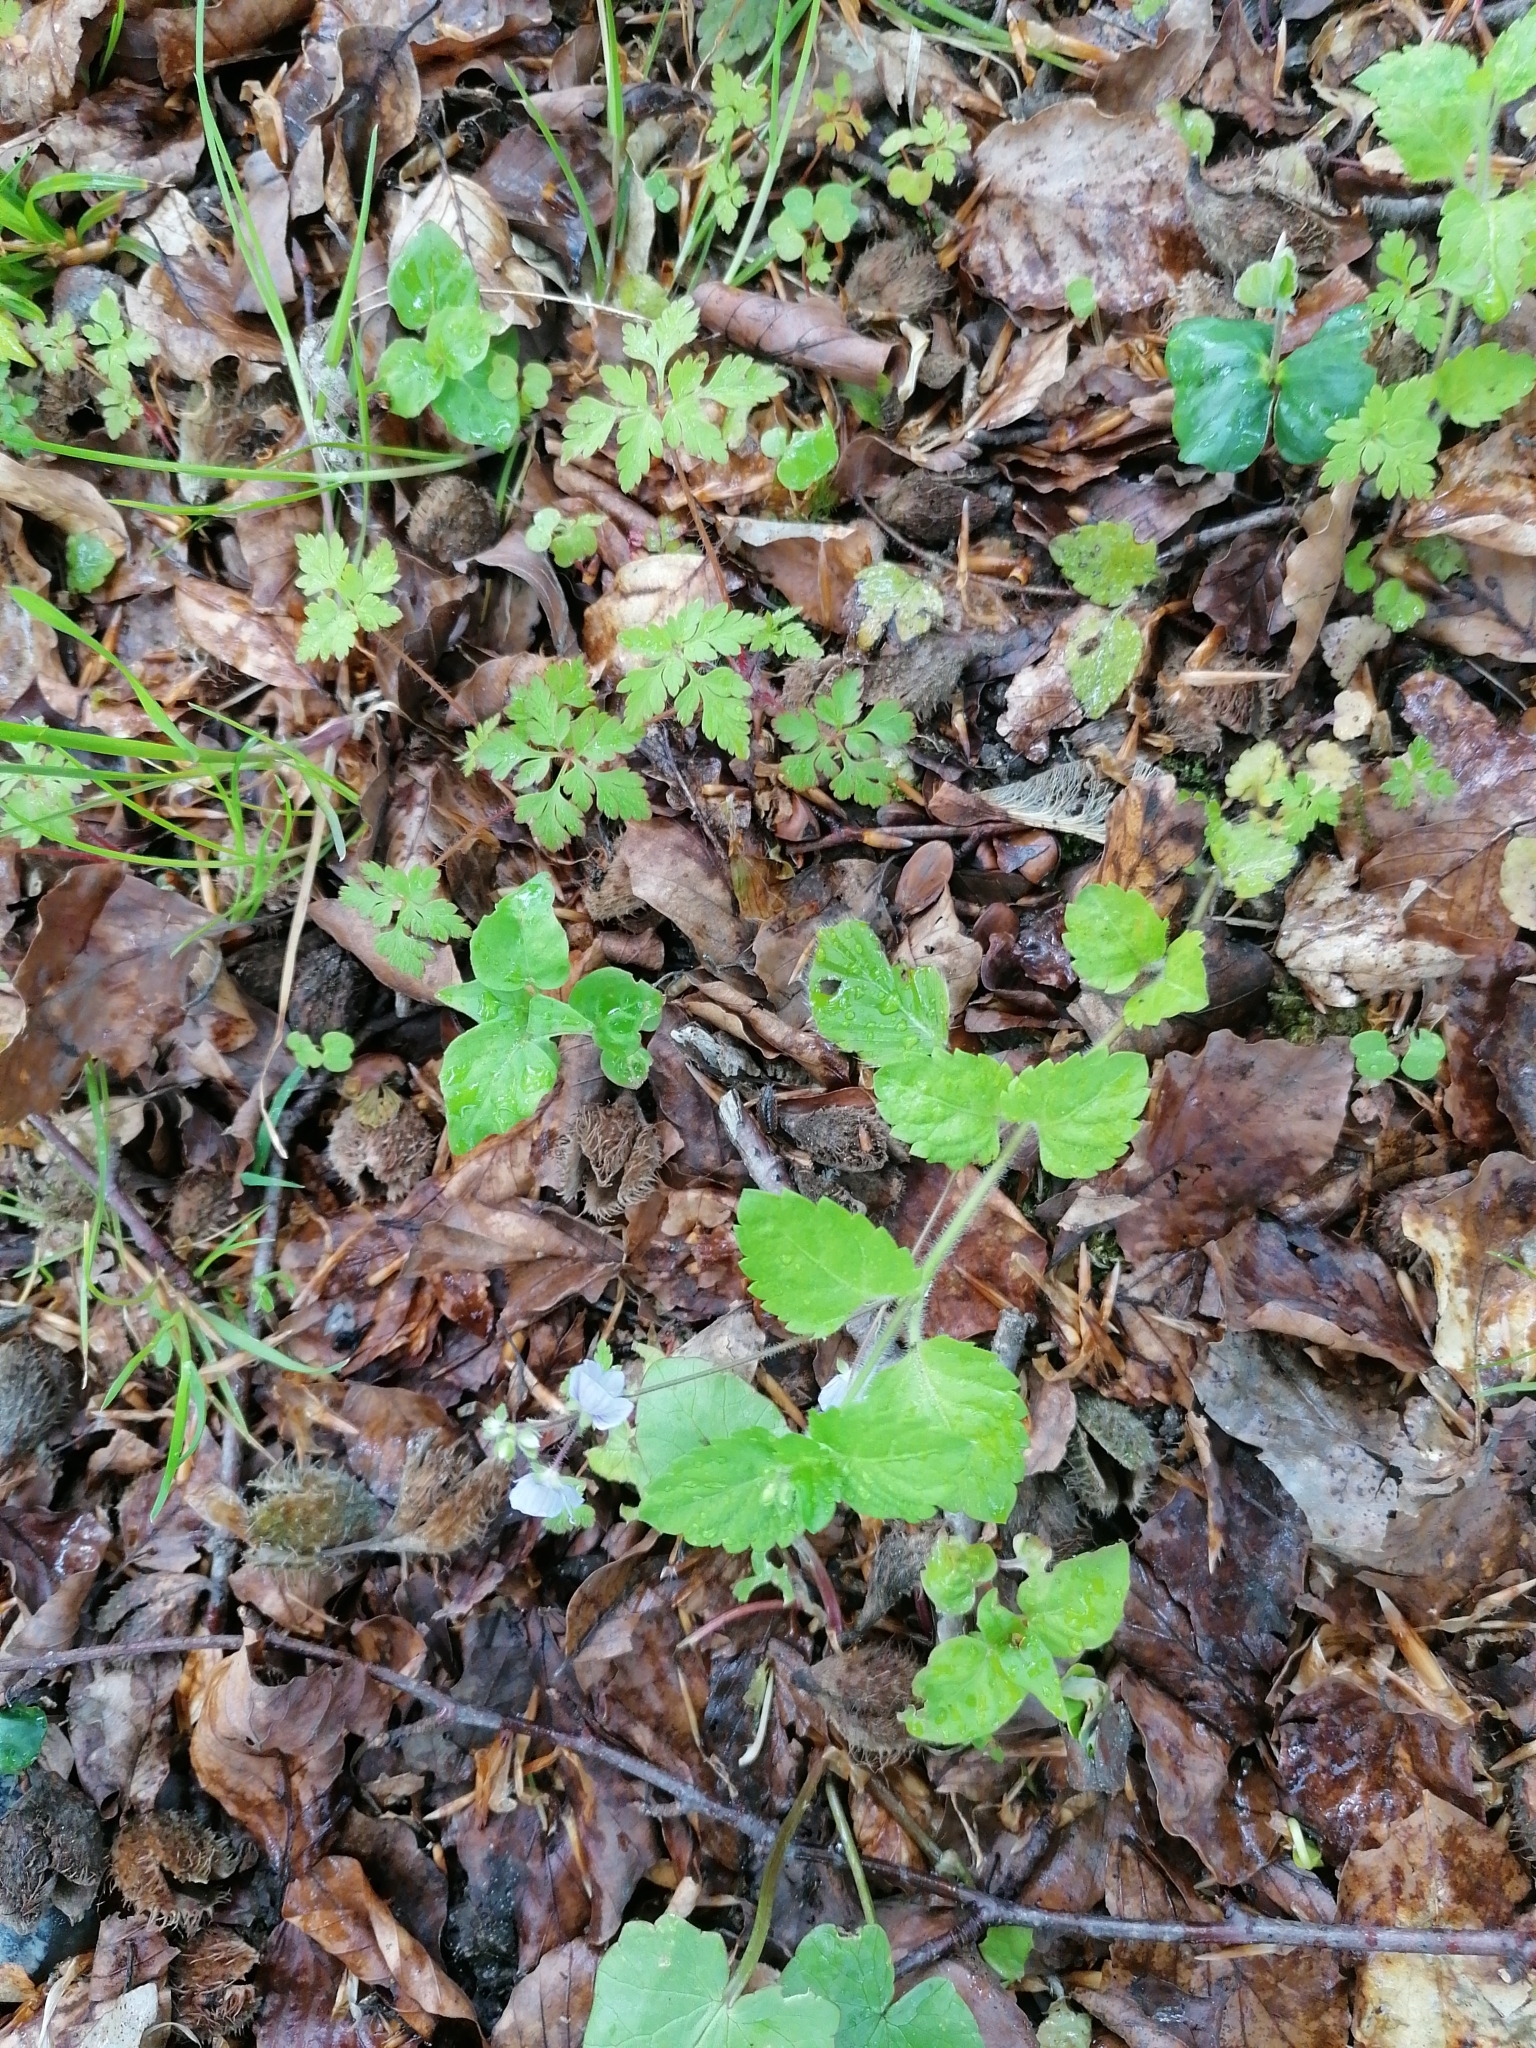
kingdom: Plantae
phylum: Tracheophyta
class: Magnoliopsida
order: Lamiales
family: Plantaginaceae
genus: Veronica
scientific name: Veronica montana
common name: Wood speedwell
